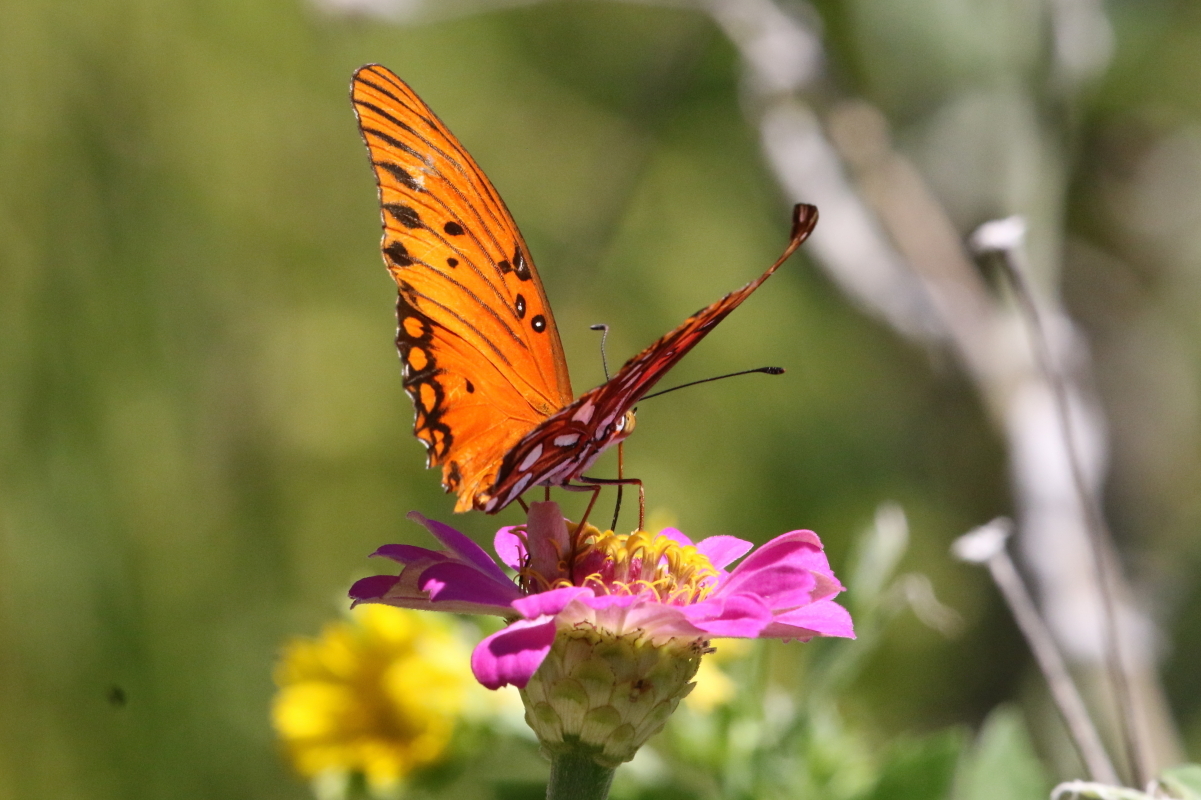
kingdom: Animalia
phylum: Arthropoda
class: Insecta
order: Lepidoptera
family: Nymphalidae
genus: Dione
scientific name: Dione vanillae
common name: Gulf fritillary
